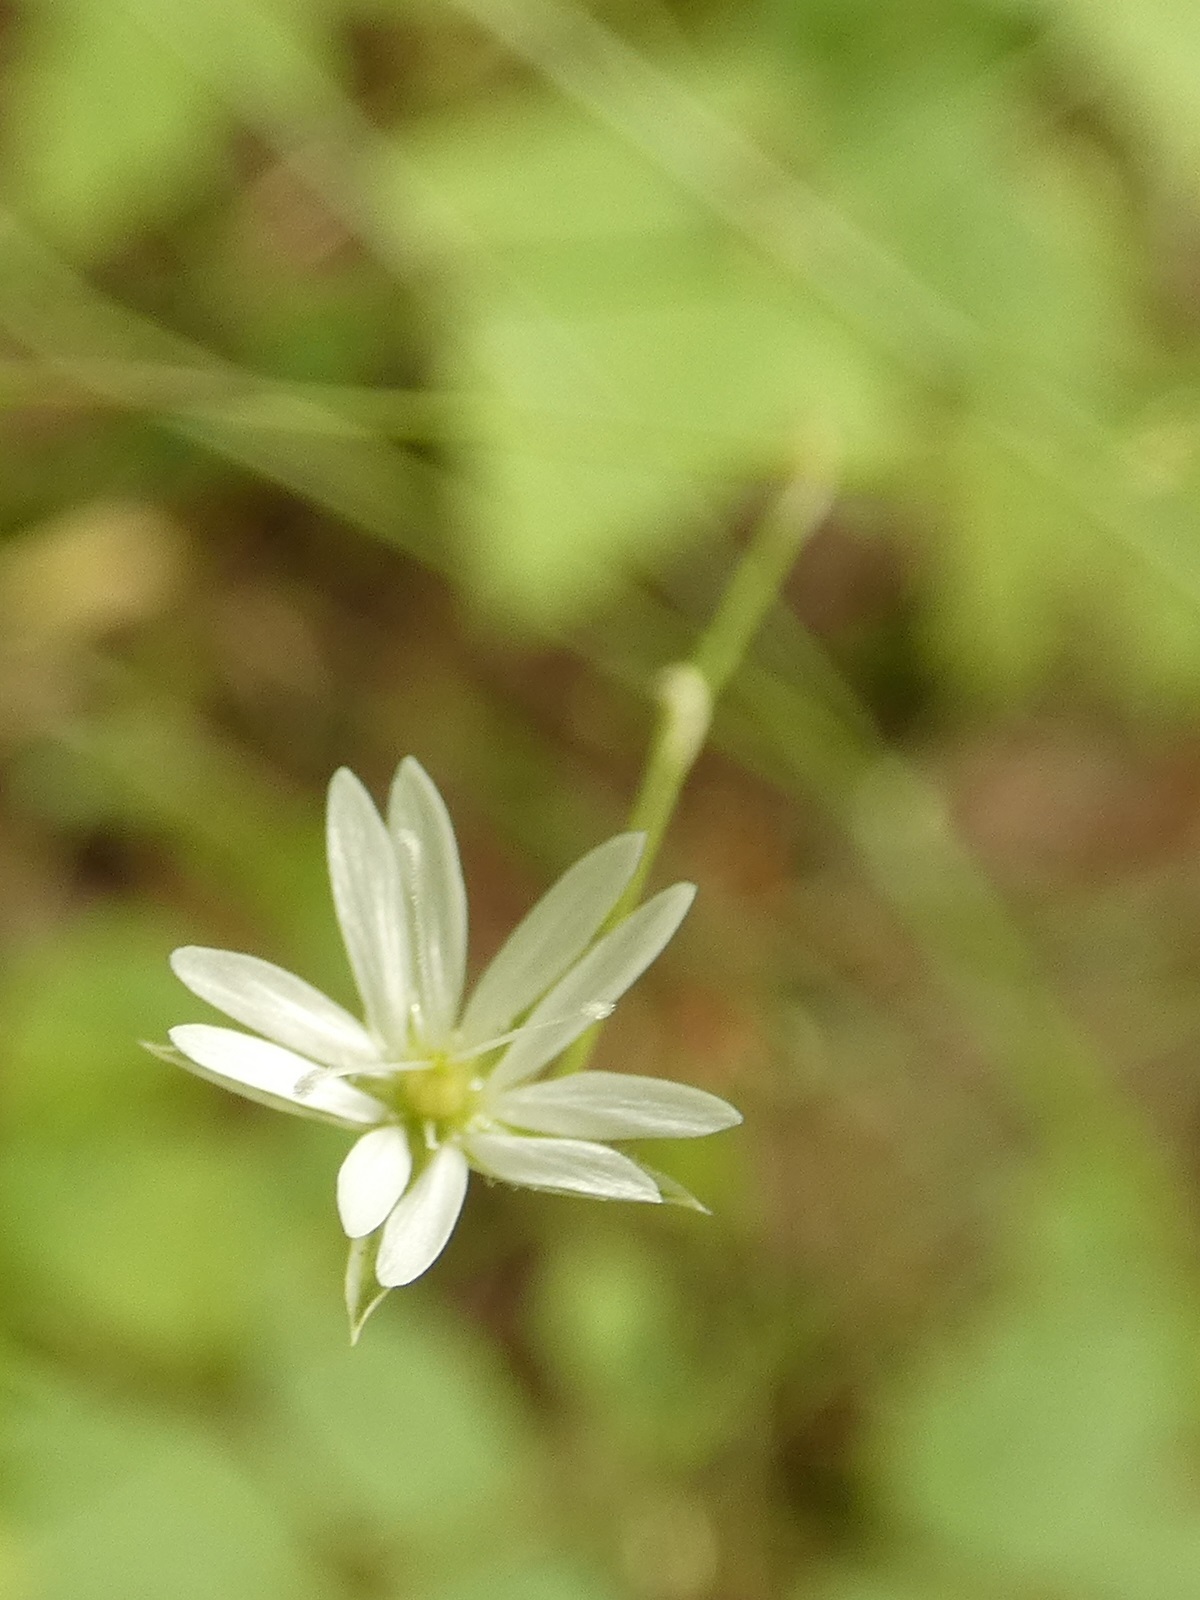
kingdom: Plantae
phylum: Tracheophyta
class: Magnoliopsida
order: Caryophyllales
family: Caryophyllaceae
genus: Stellaria
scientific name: Stellaria graminea
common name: Grass-like starwort
